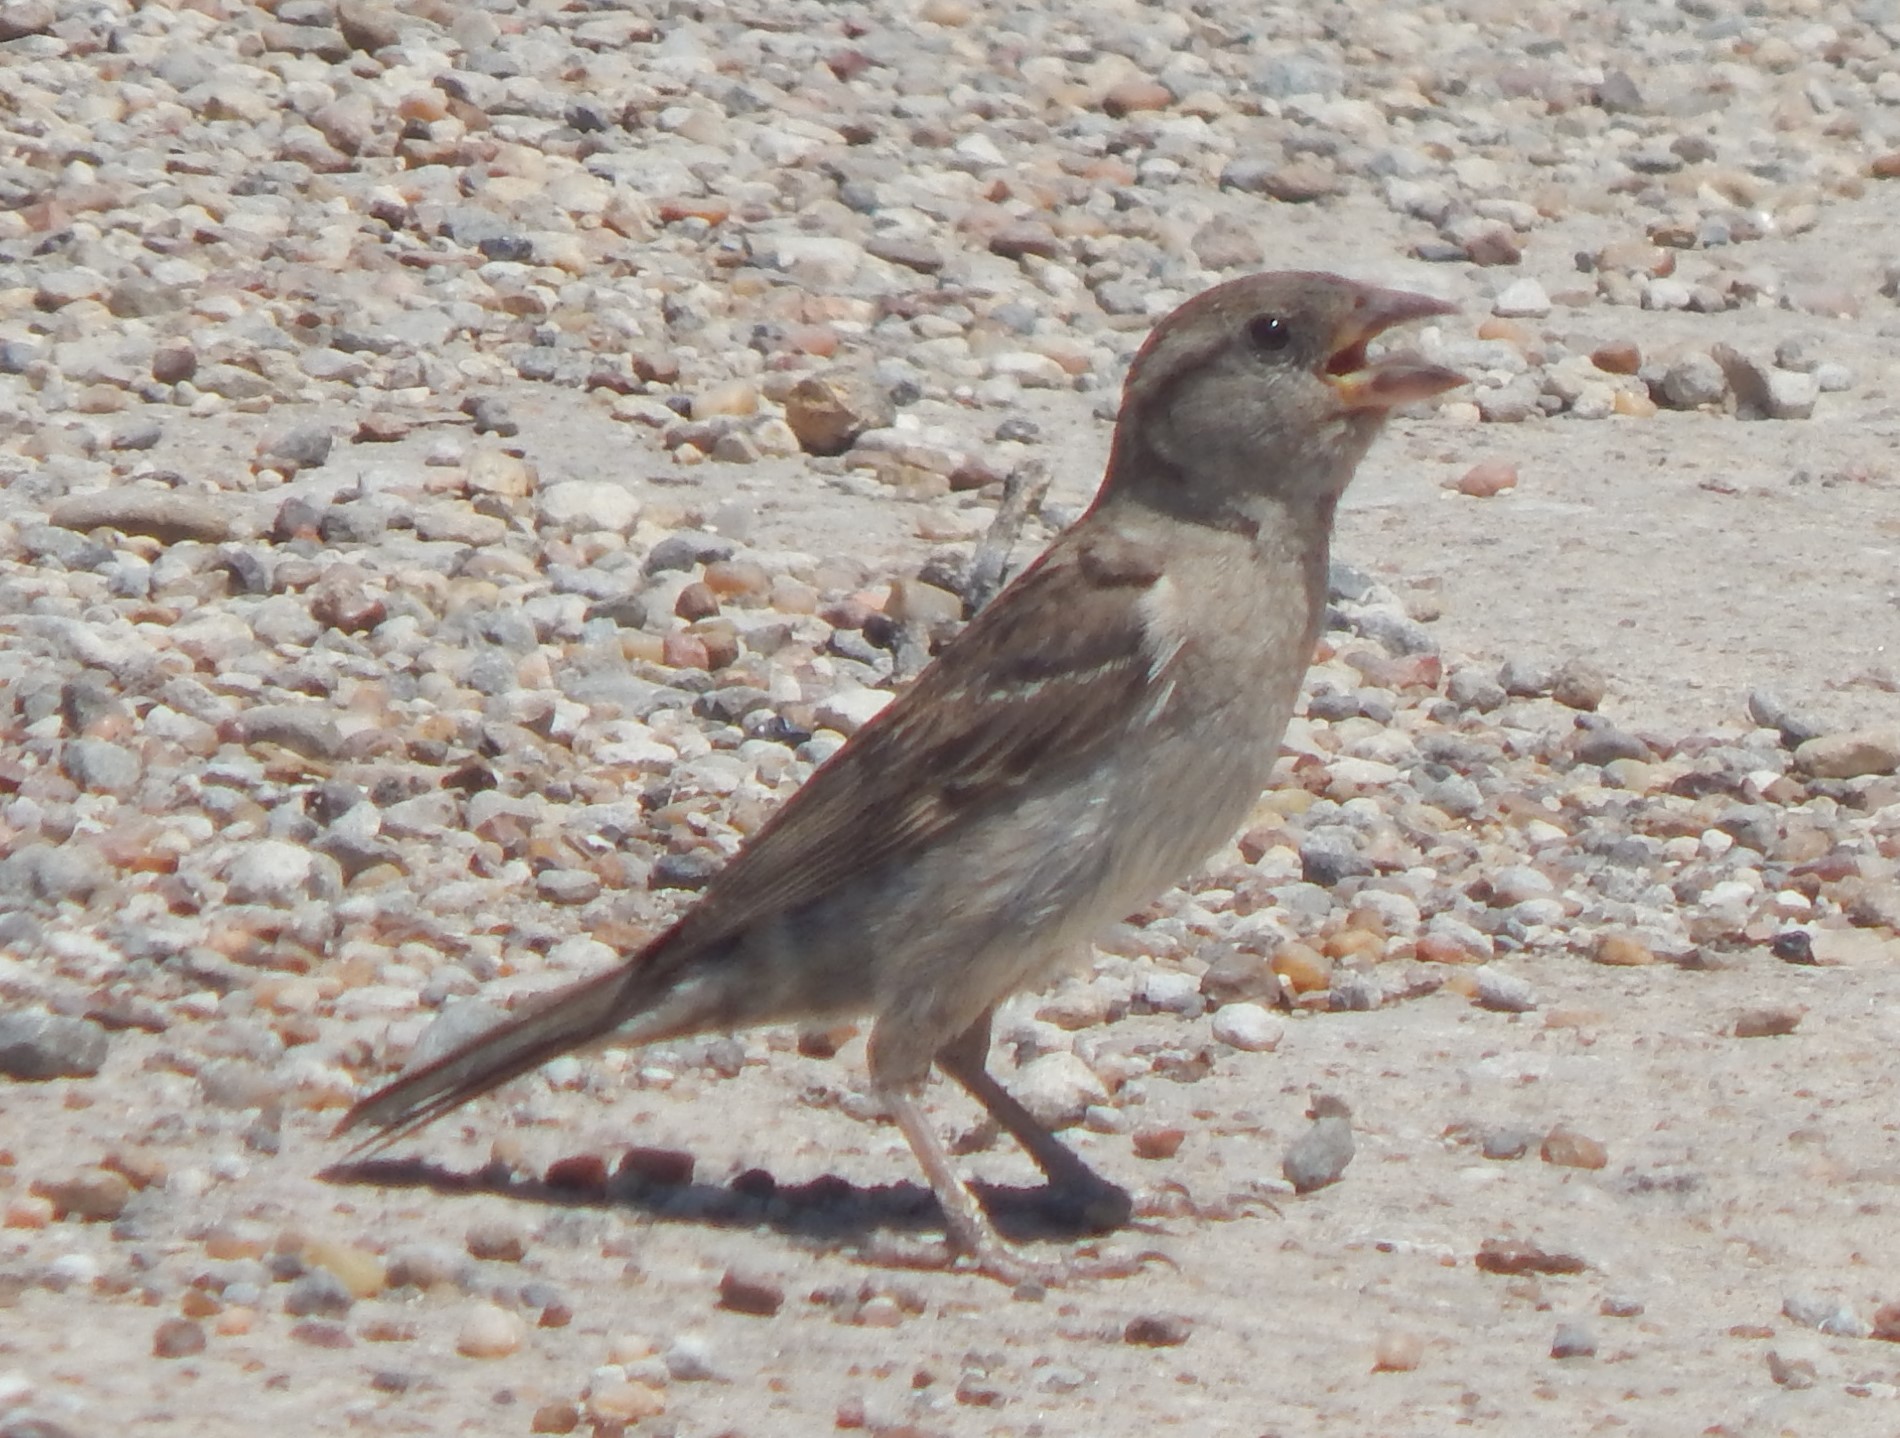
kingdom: Animalia
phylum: Chordata
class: Aves
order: Passeriformes
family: Passeridae
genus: Passer
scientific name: Passer domesticus
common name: House sparrow
